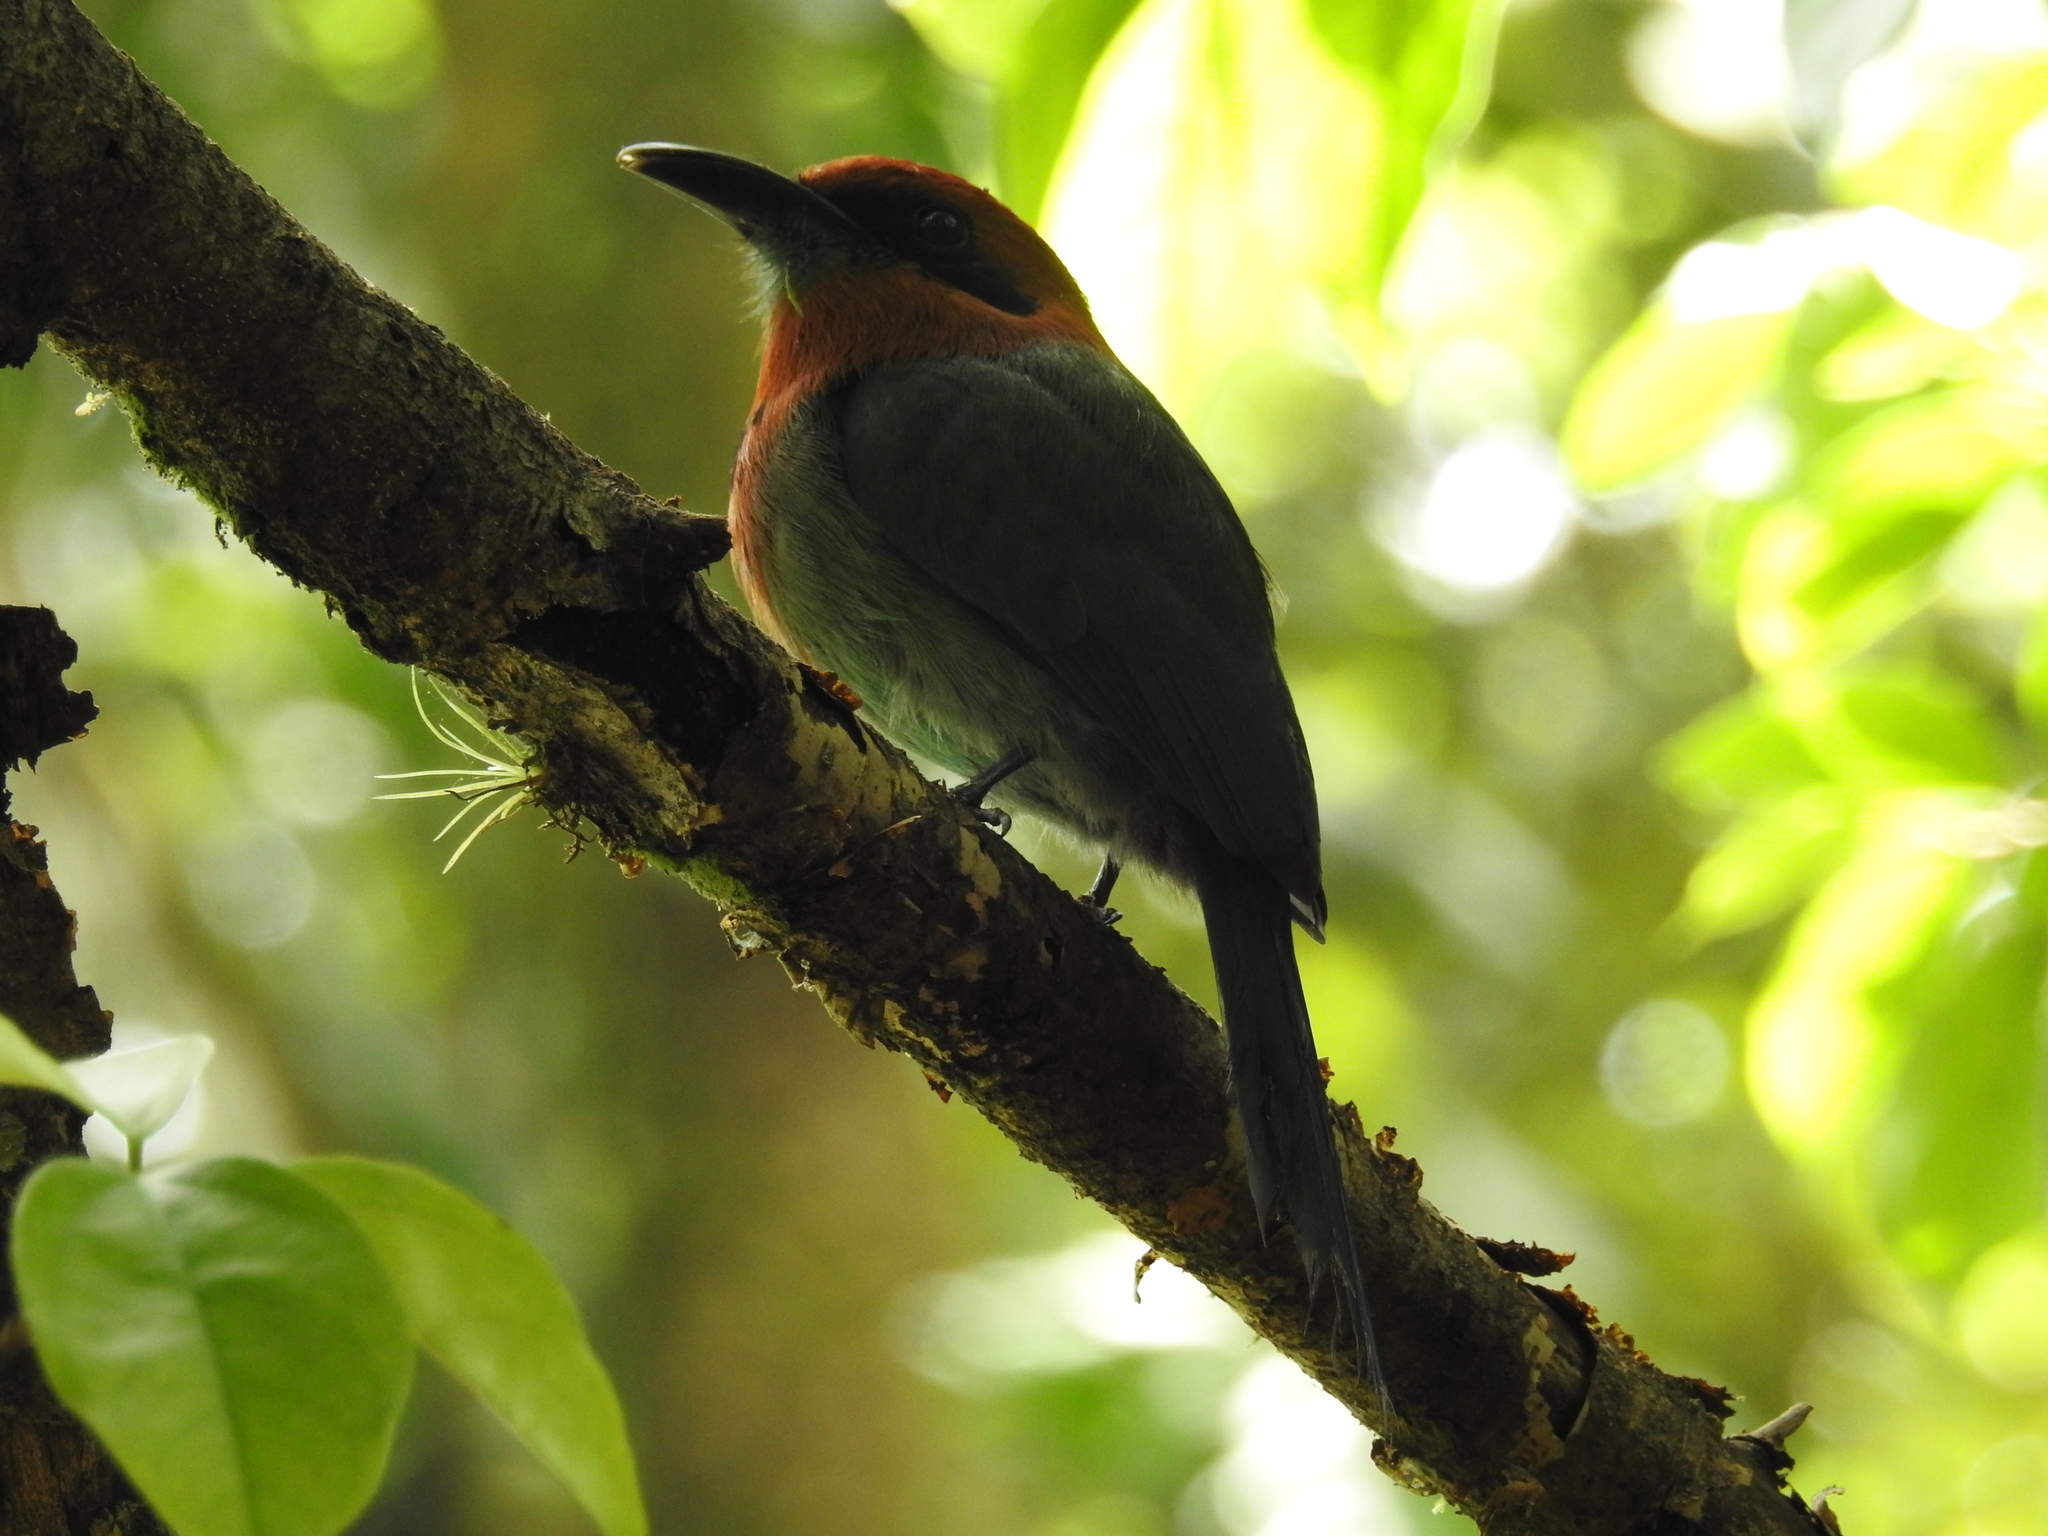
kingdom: Animalia
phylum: Chordata
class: Aves
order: Coraciiformes
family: Momotidae
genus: Electron
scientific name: Electron platyrhynchum
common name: Broad-billed motmot
